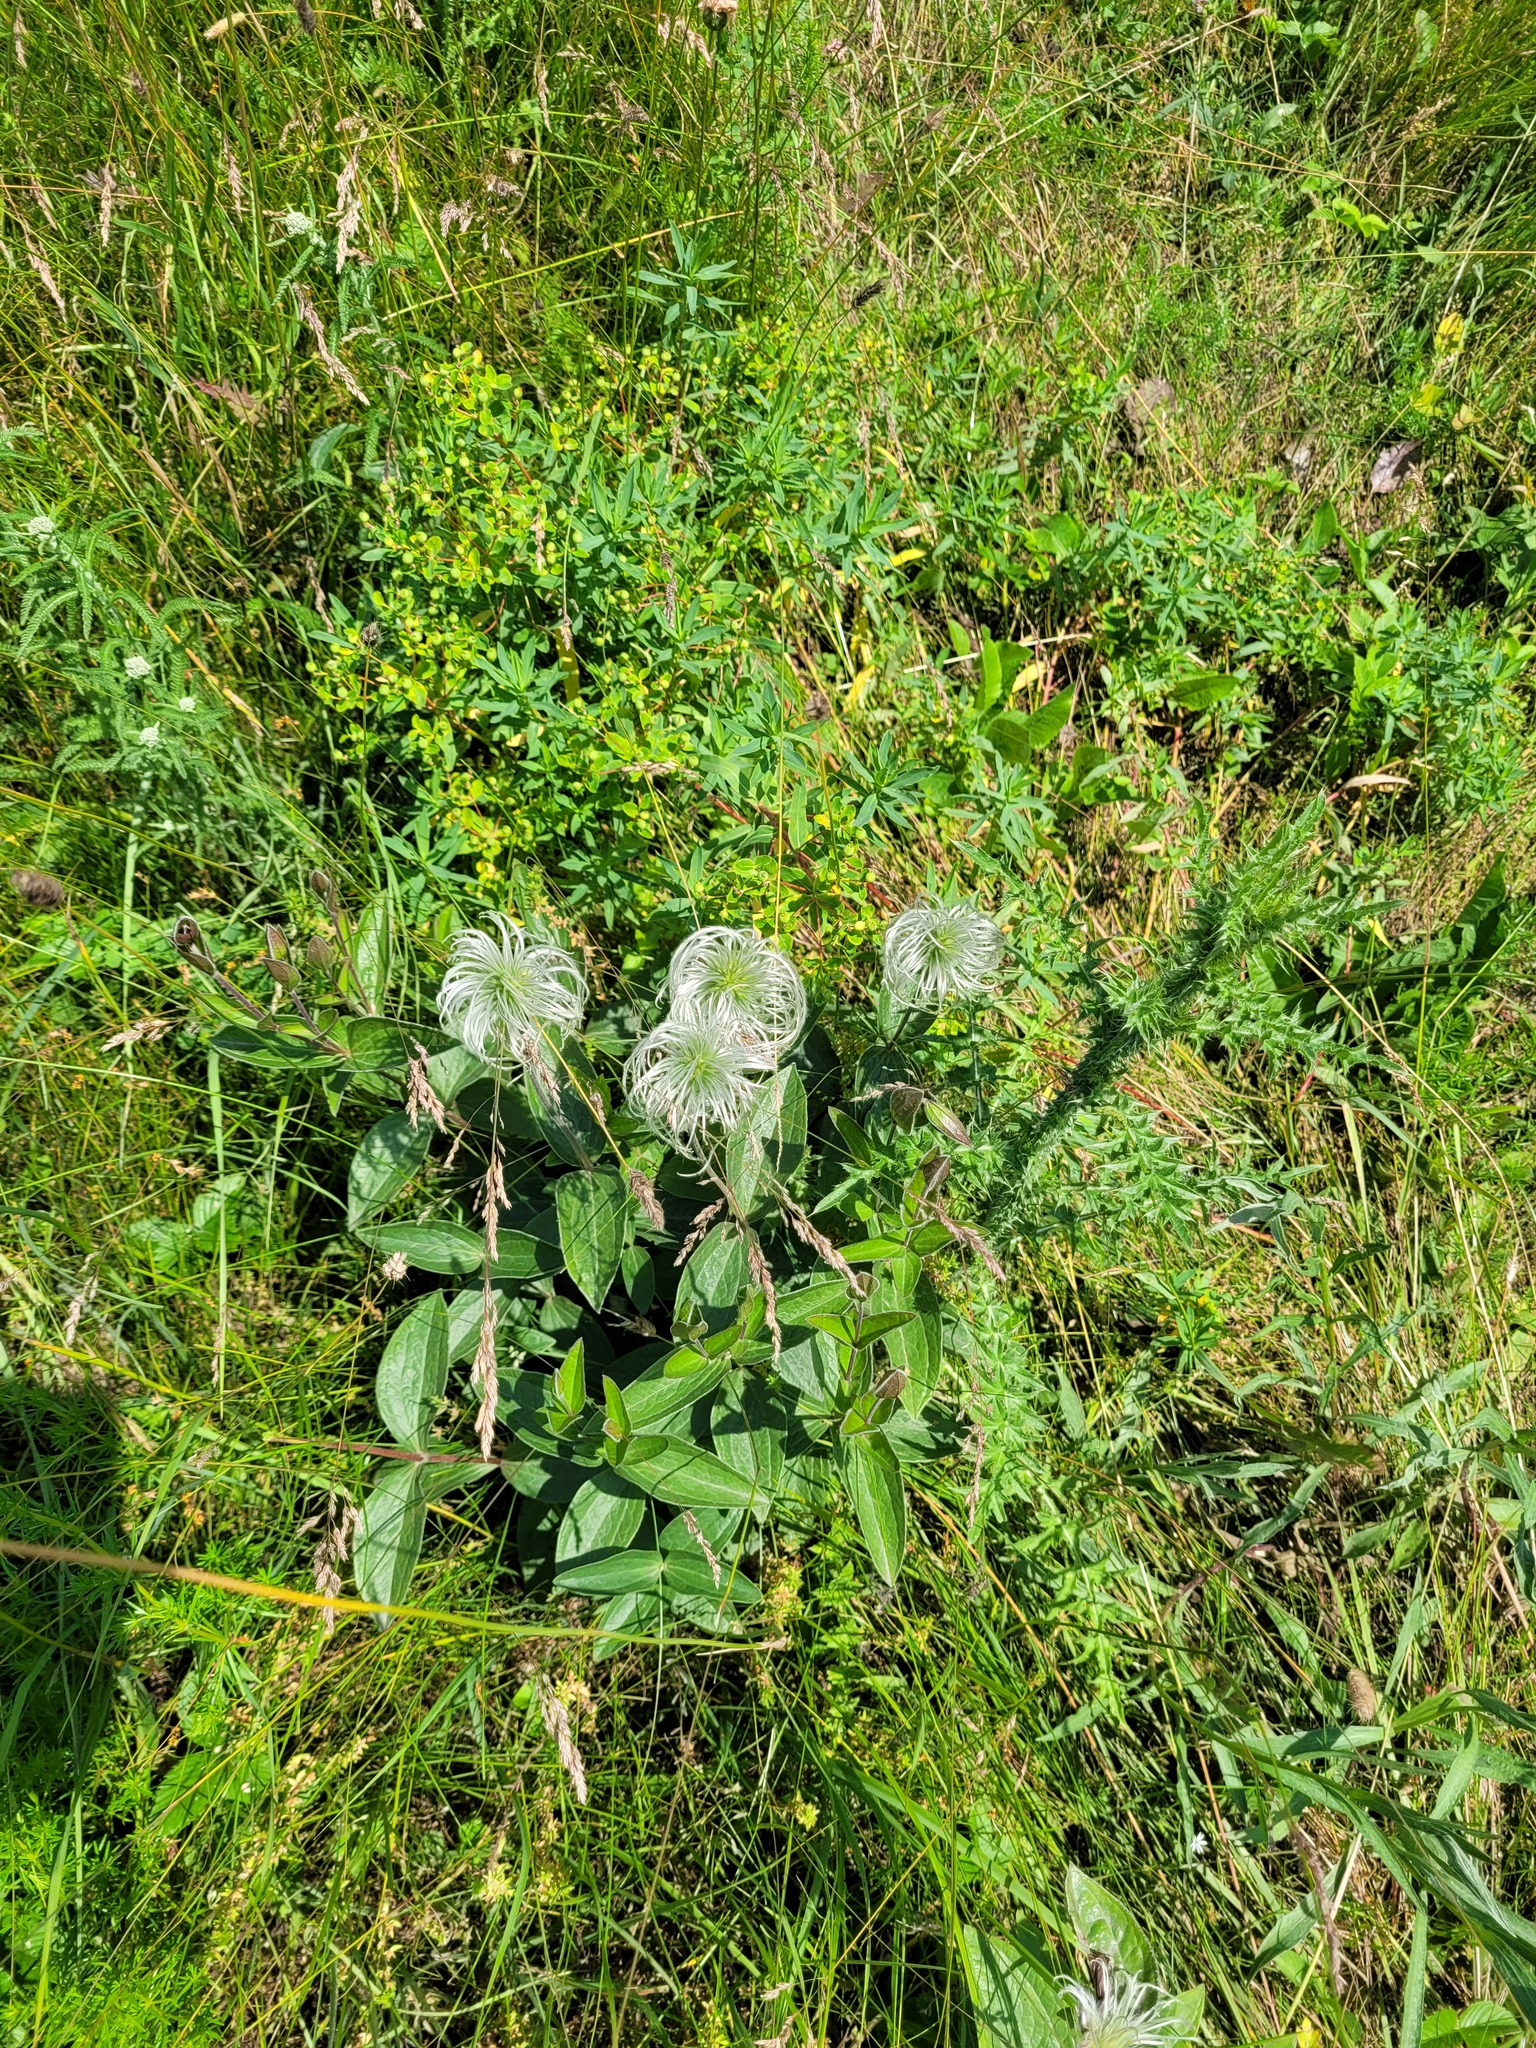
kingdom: Plantae
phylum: Tracheophyta
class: Magnoliopsida
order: Ranunculales
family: Ranunculaceae
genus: Clematis
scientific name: Clematis integrifolia
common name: Solitary clematis
